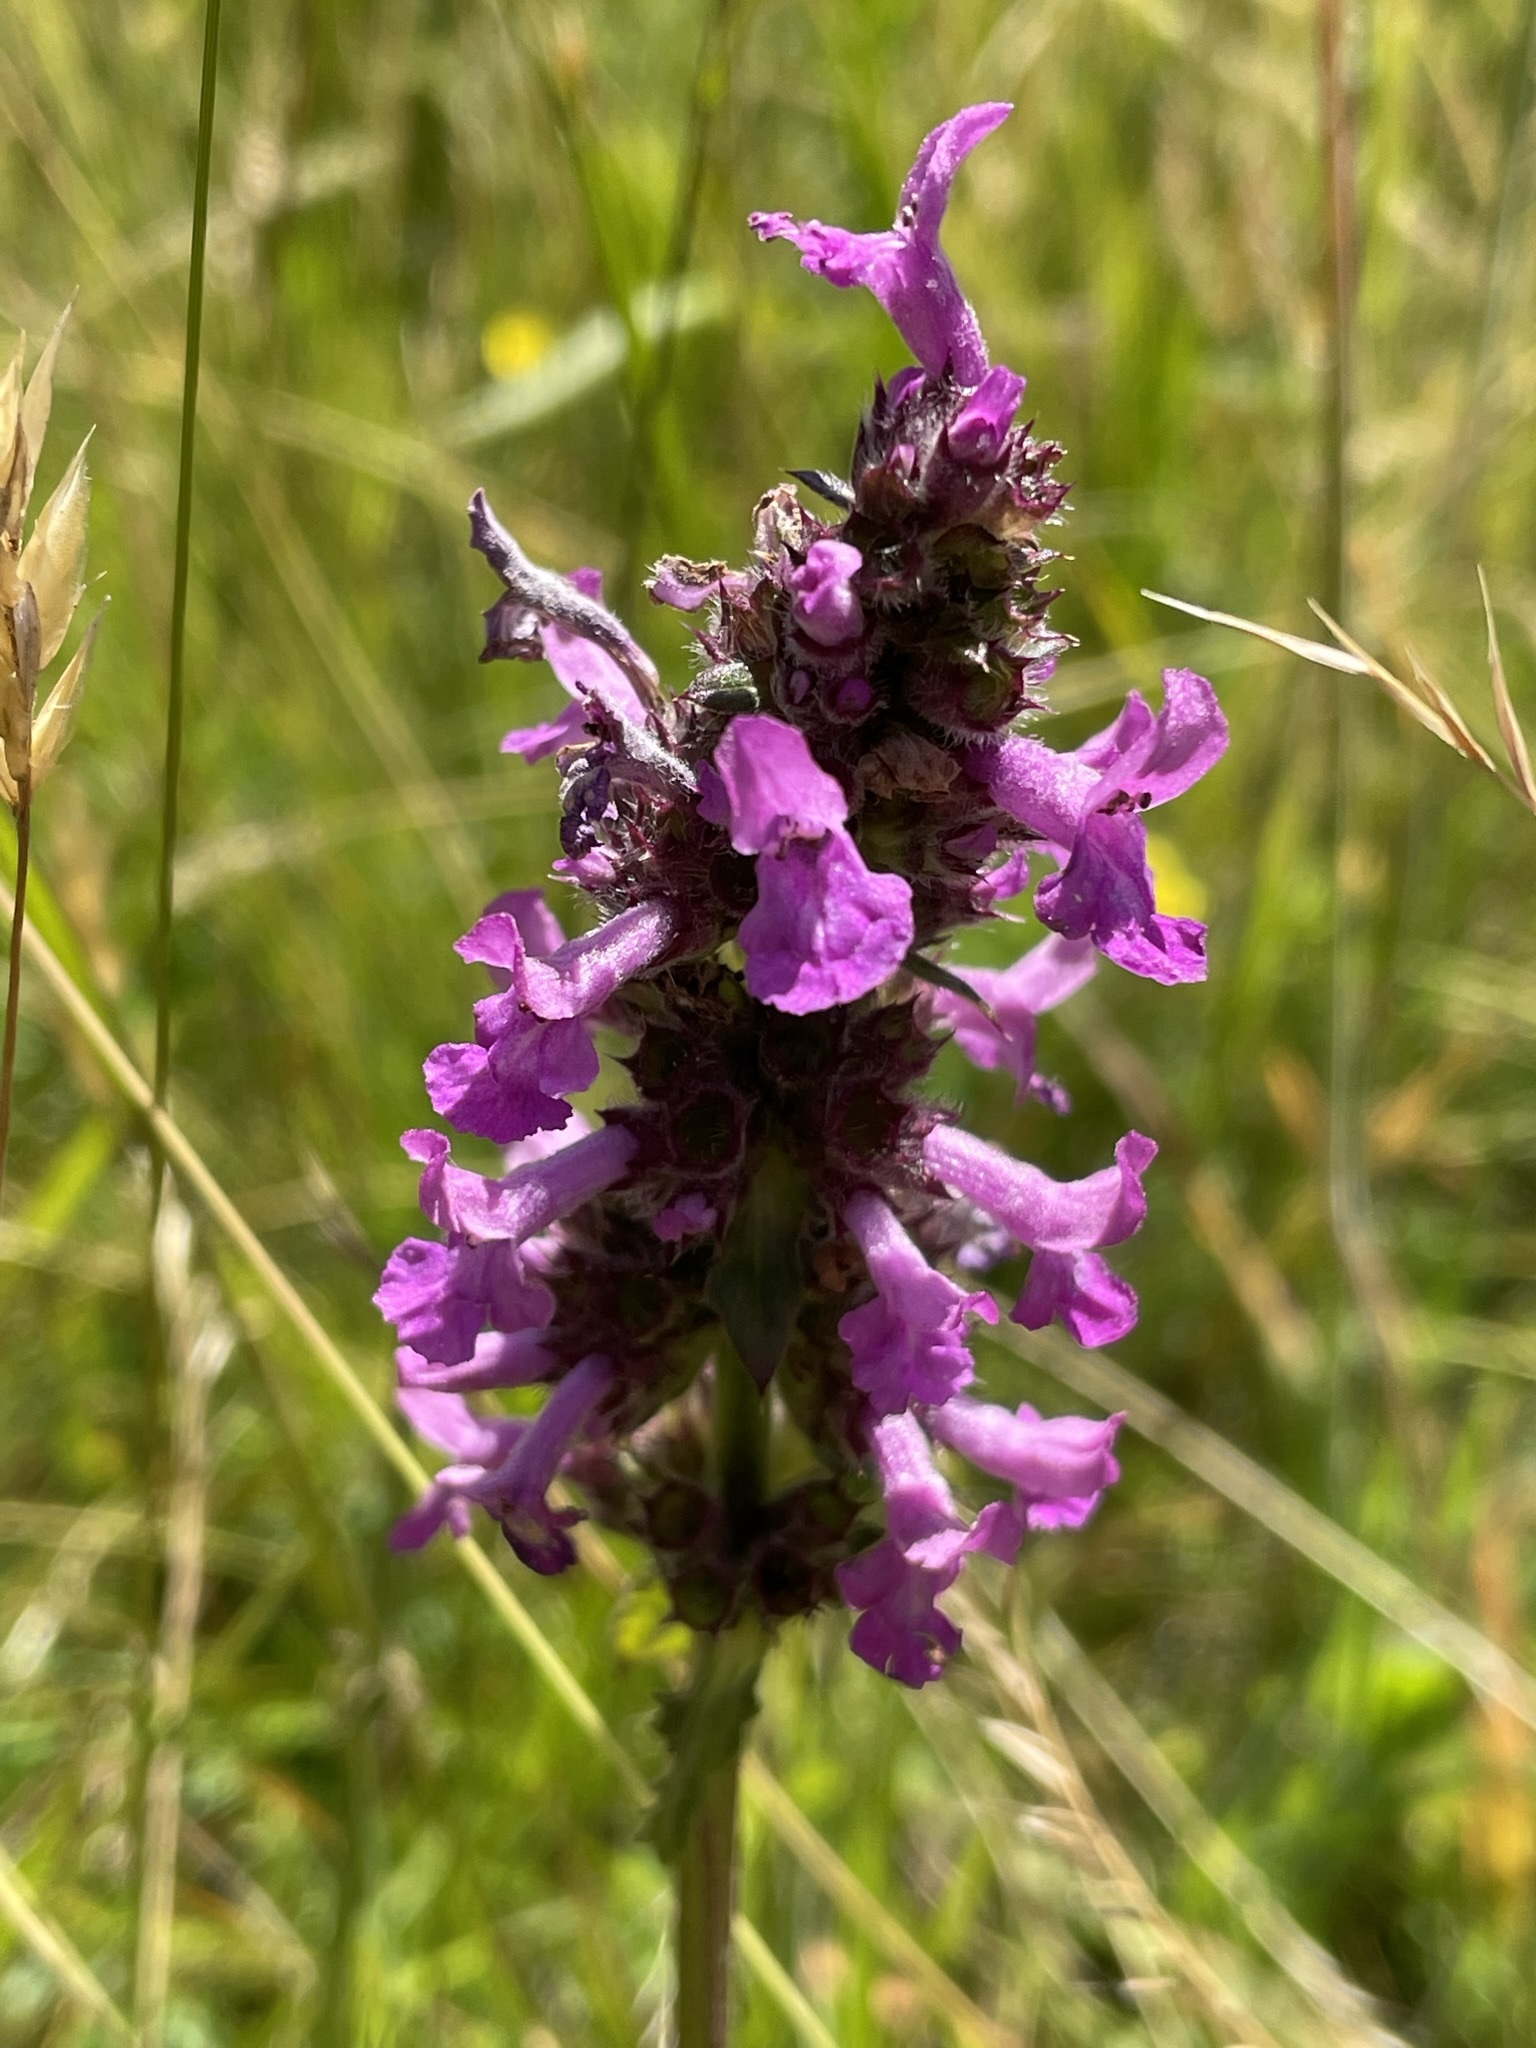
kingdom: Plantae
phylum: Tracheophyta
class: Magnoliopsida
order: Lamiales
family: Lamiaceae
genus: Betonica
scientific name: Betonica officinalis
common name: Bishop's-wort
